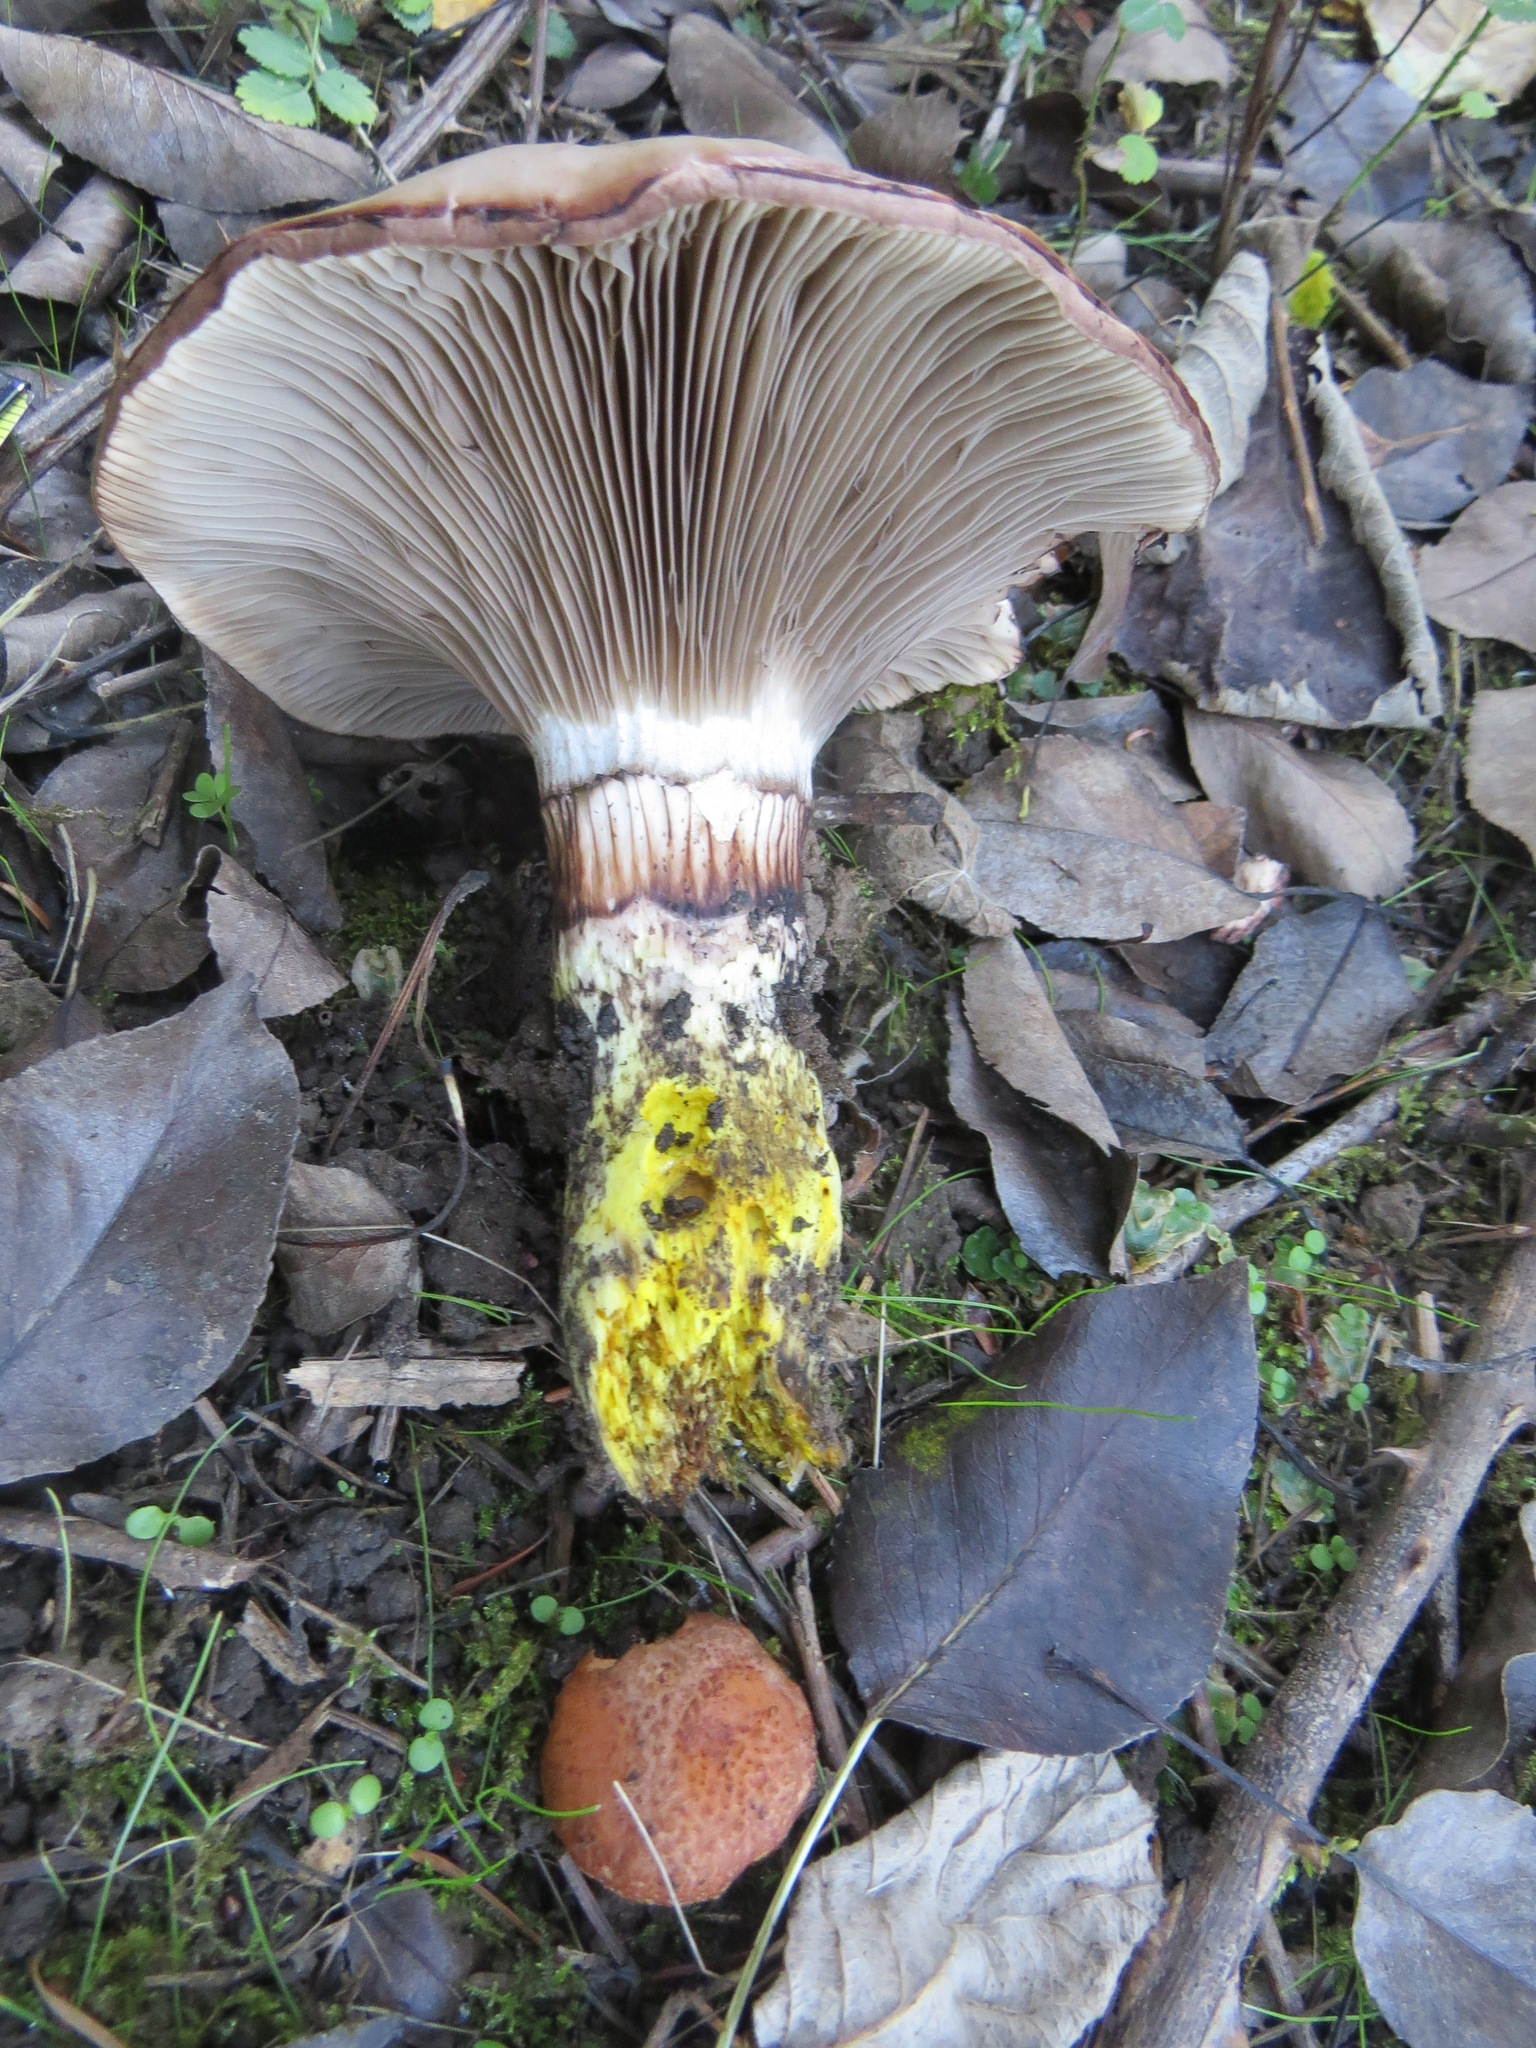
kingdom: Fungi
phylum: Basidiomycota
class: Agaricomycetes
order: Boletales
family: Gomphidiaceae
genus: Gomphidius
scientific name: Gomphidius oregonensis
